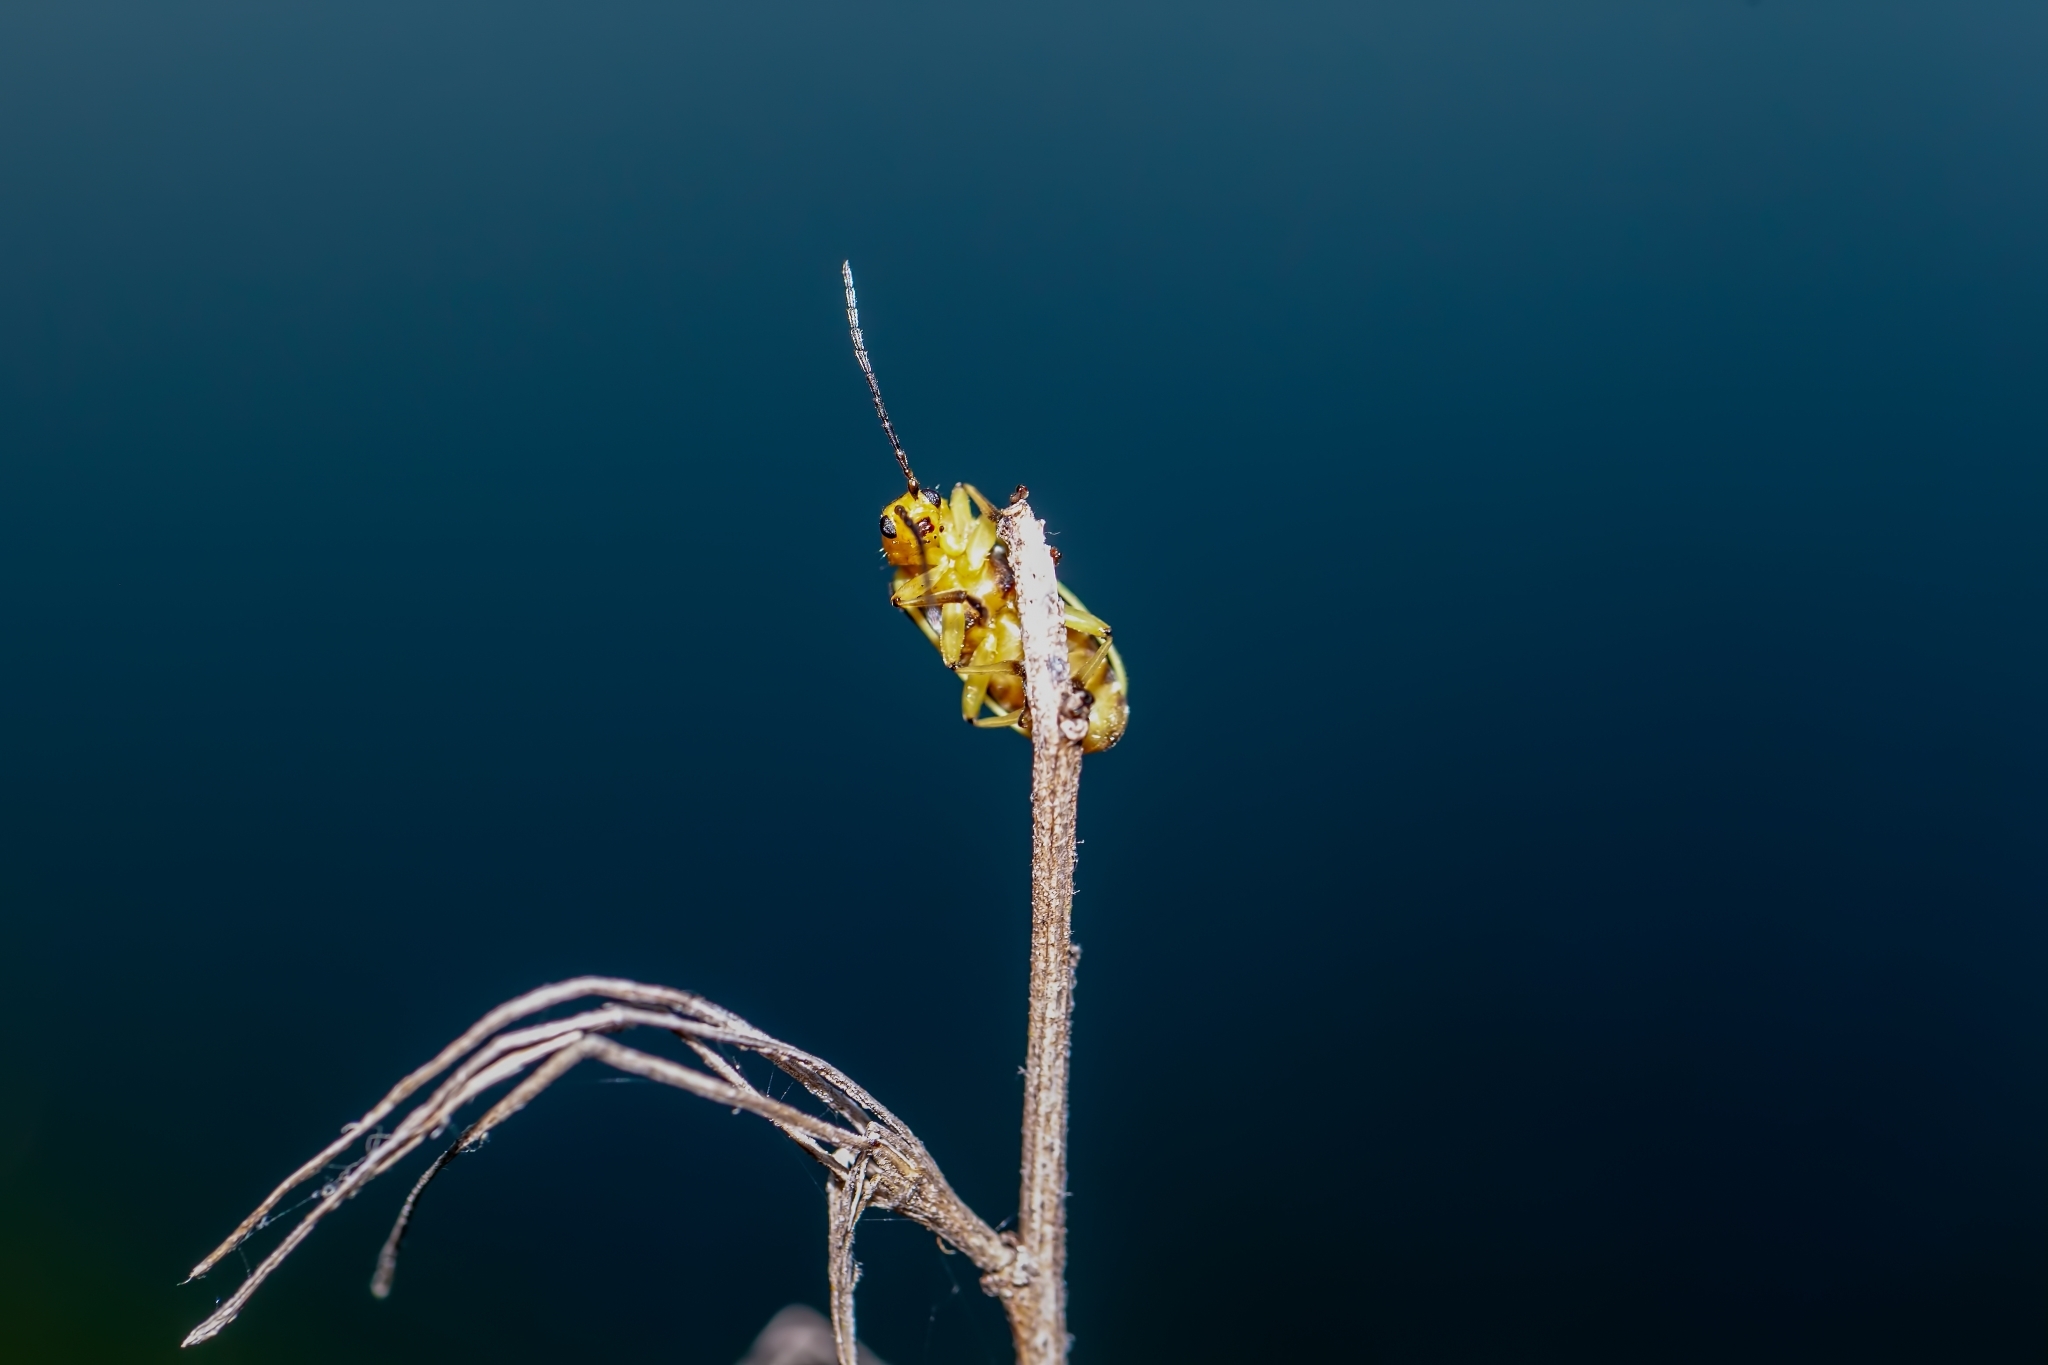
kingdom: Animalia
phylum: Arthropoda
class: Insecta
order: Coleoptera
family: Chrysomelidae
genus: Trirhabda
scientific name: Trirhabda bacharidis
